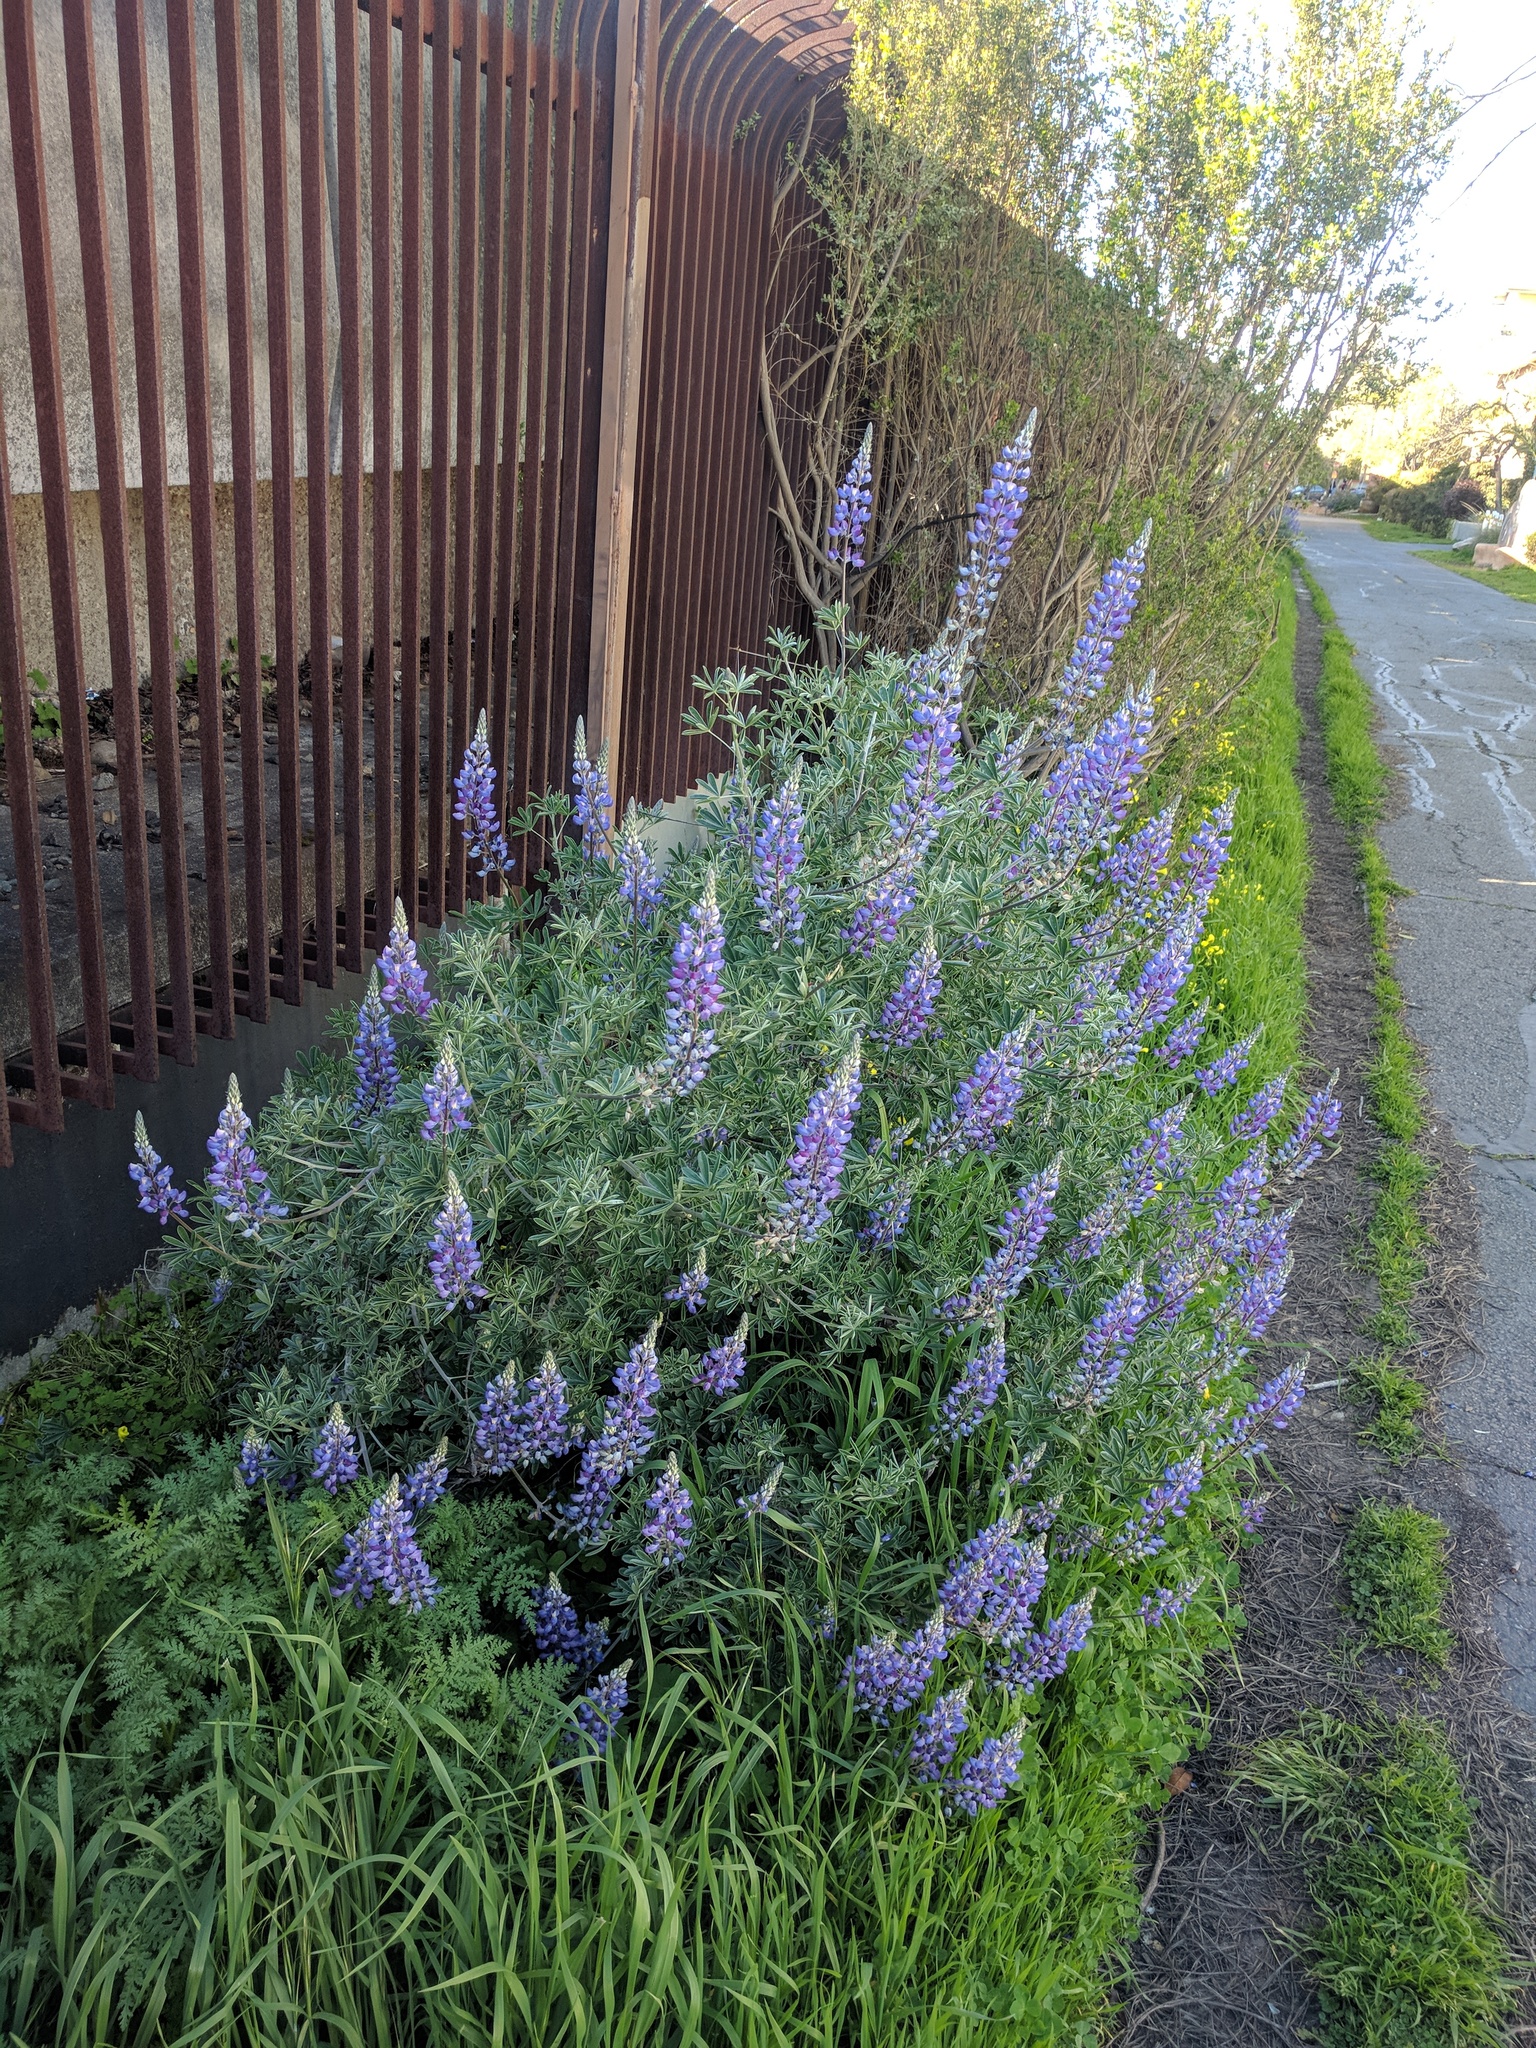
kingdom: Plantae
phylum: Tracheophyta
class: Magnoliopsida
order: Fabales
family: Fabaceae
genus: Lupinus
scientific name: Lupinus albifrons
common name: Foothill lupine
